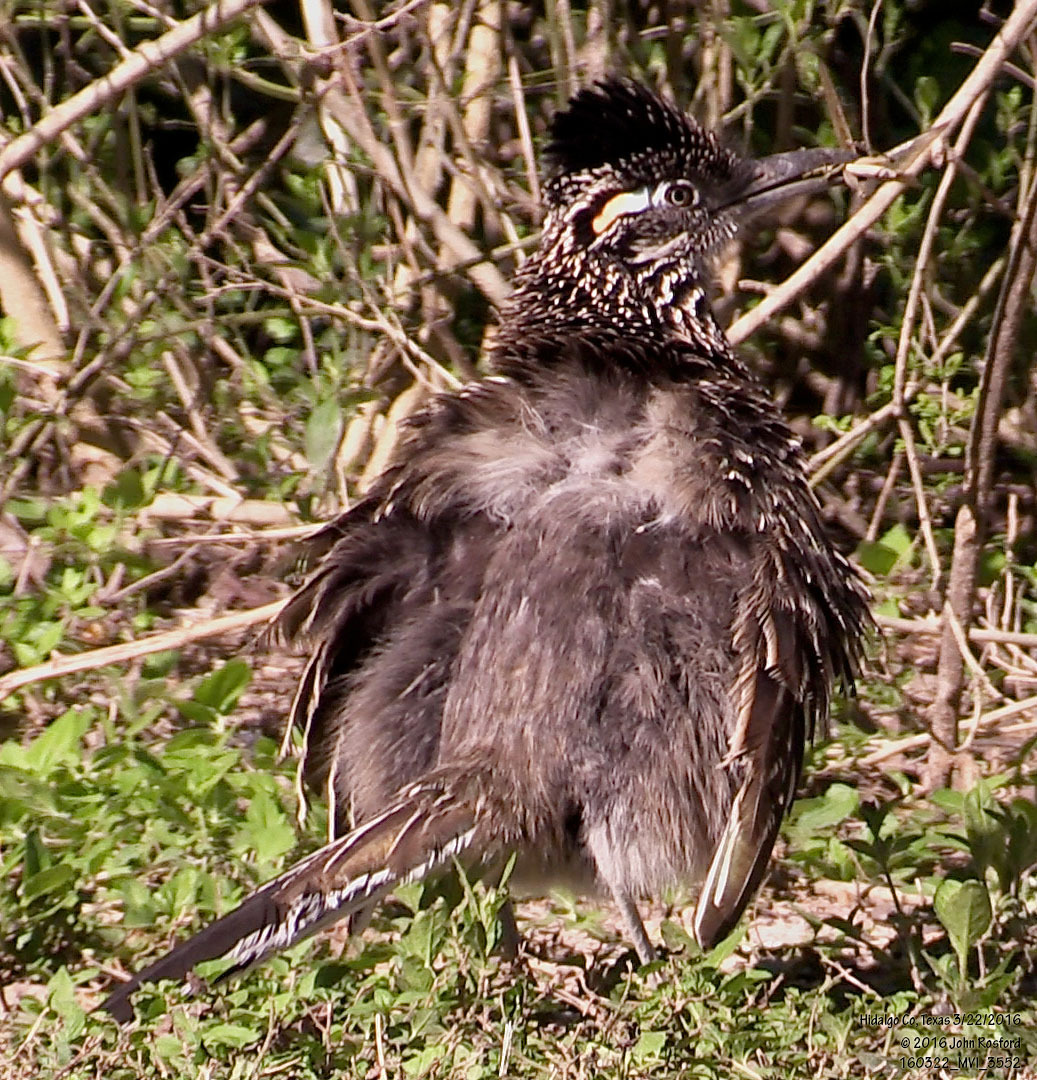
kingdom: Animalia
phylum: Chordata
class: Aves
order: Cuculiformes
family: Cuculidae
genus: Geococcyx
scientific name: Geococcyx californianus
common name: Greater roadrunner
